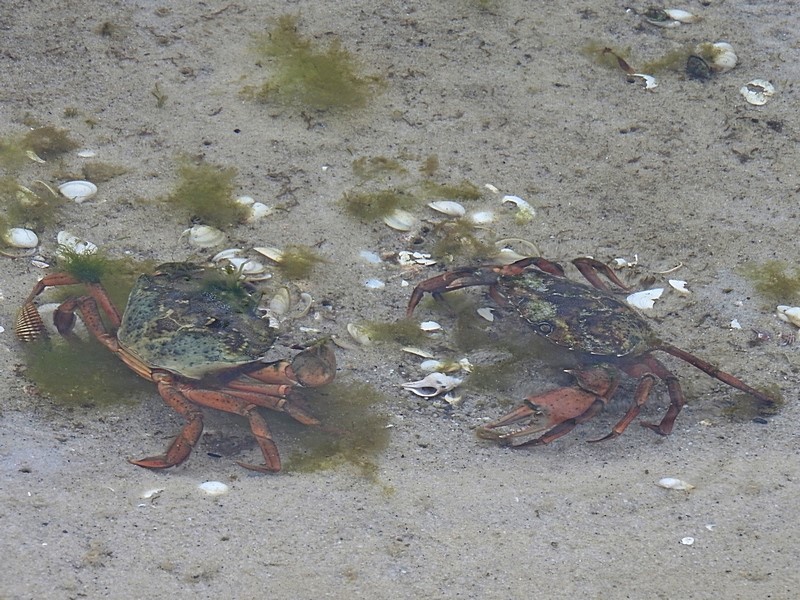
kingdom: Animalia
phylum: Arthropoda
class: Malacostraca
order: Decapoda
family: Carcinidae
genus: Carcinus
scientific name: Carcinus maenas
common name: European green crab
